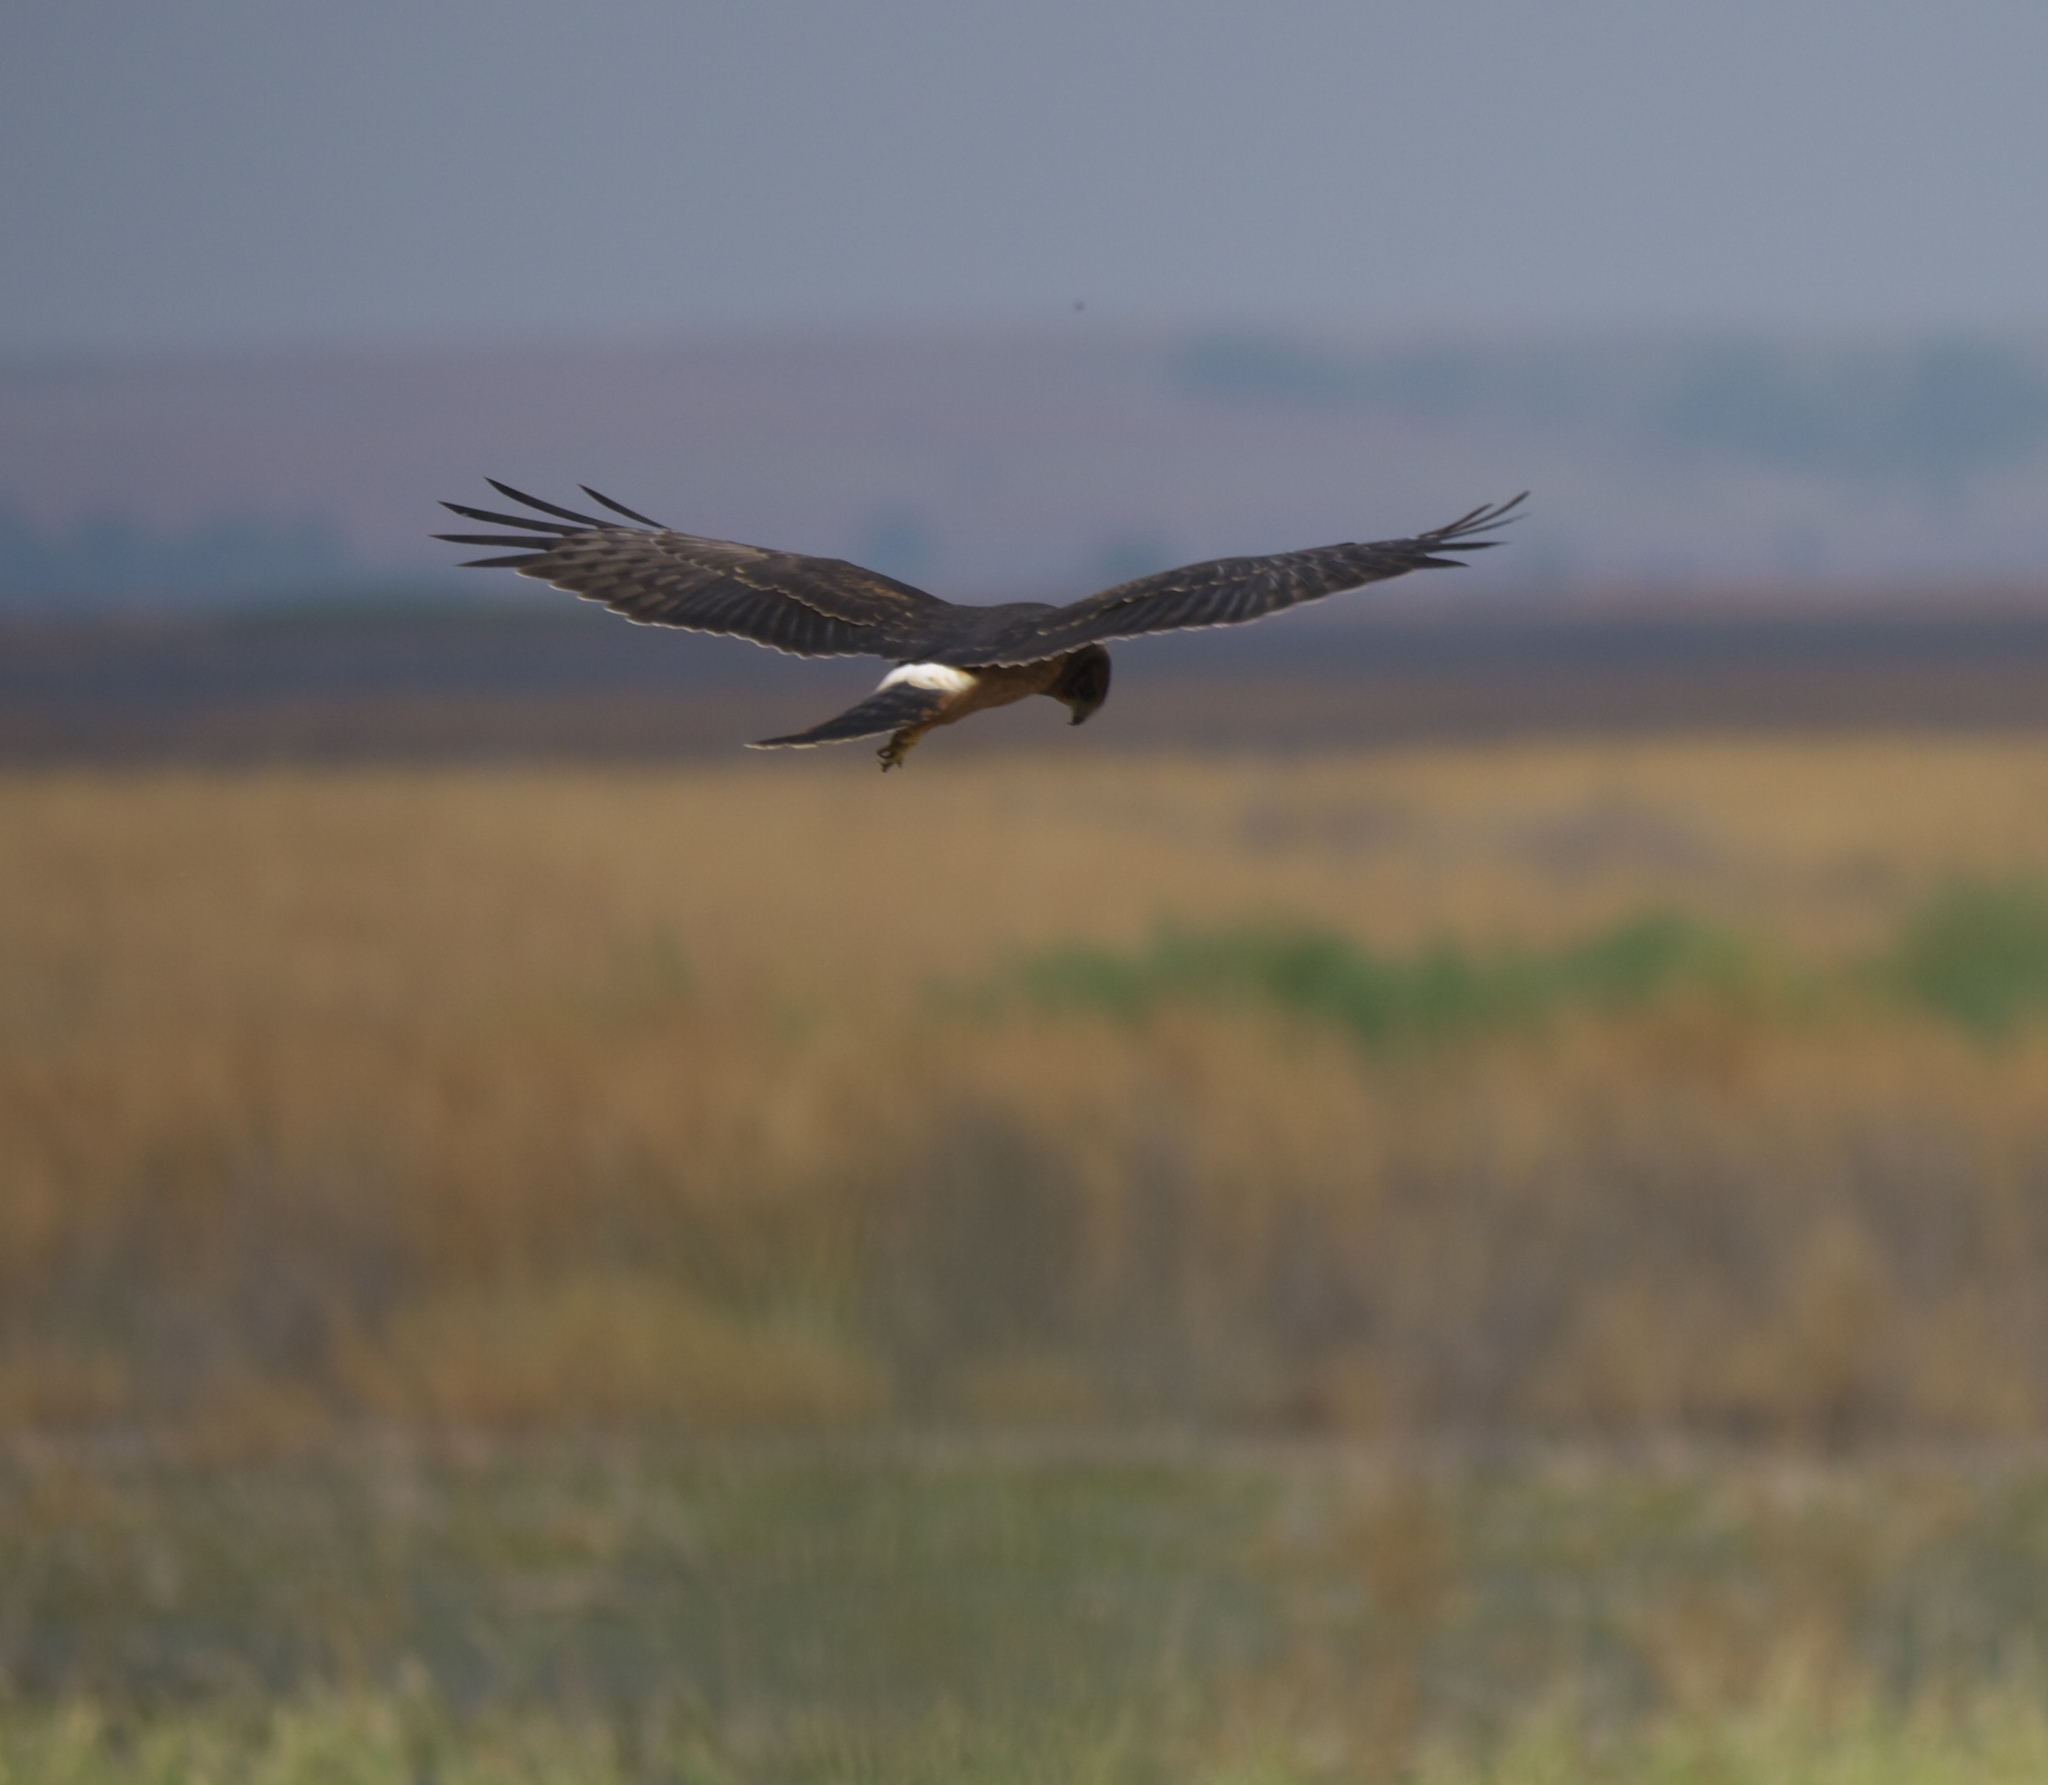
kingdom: Animalia
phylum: Chordata
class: Aves
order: Accipitriformes
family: Accipitridae
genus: Circus
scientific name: Circus cyaneus
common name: Hen harrier
